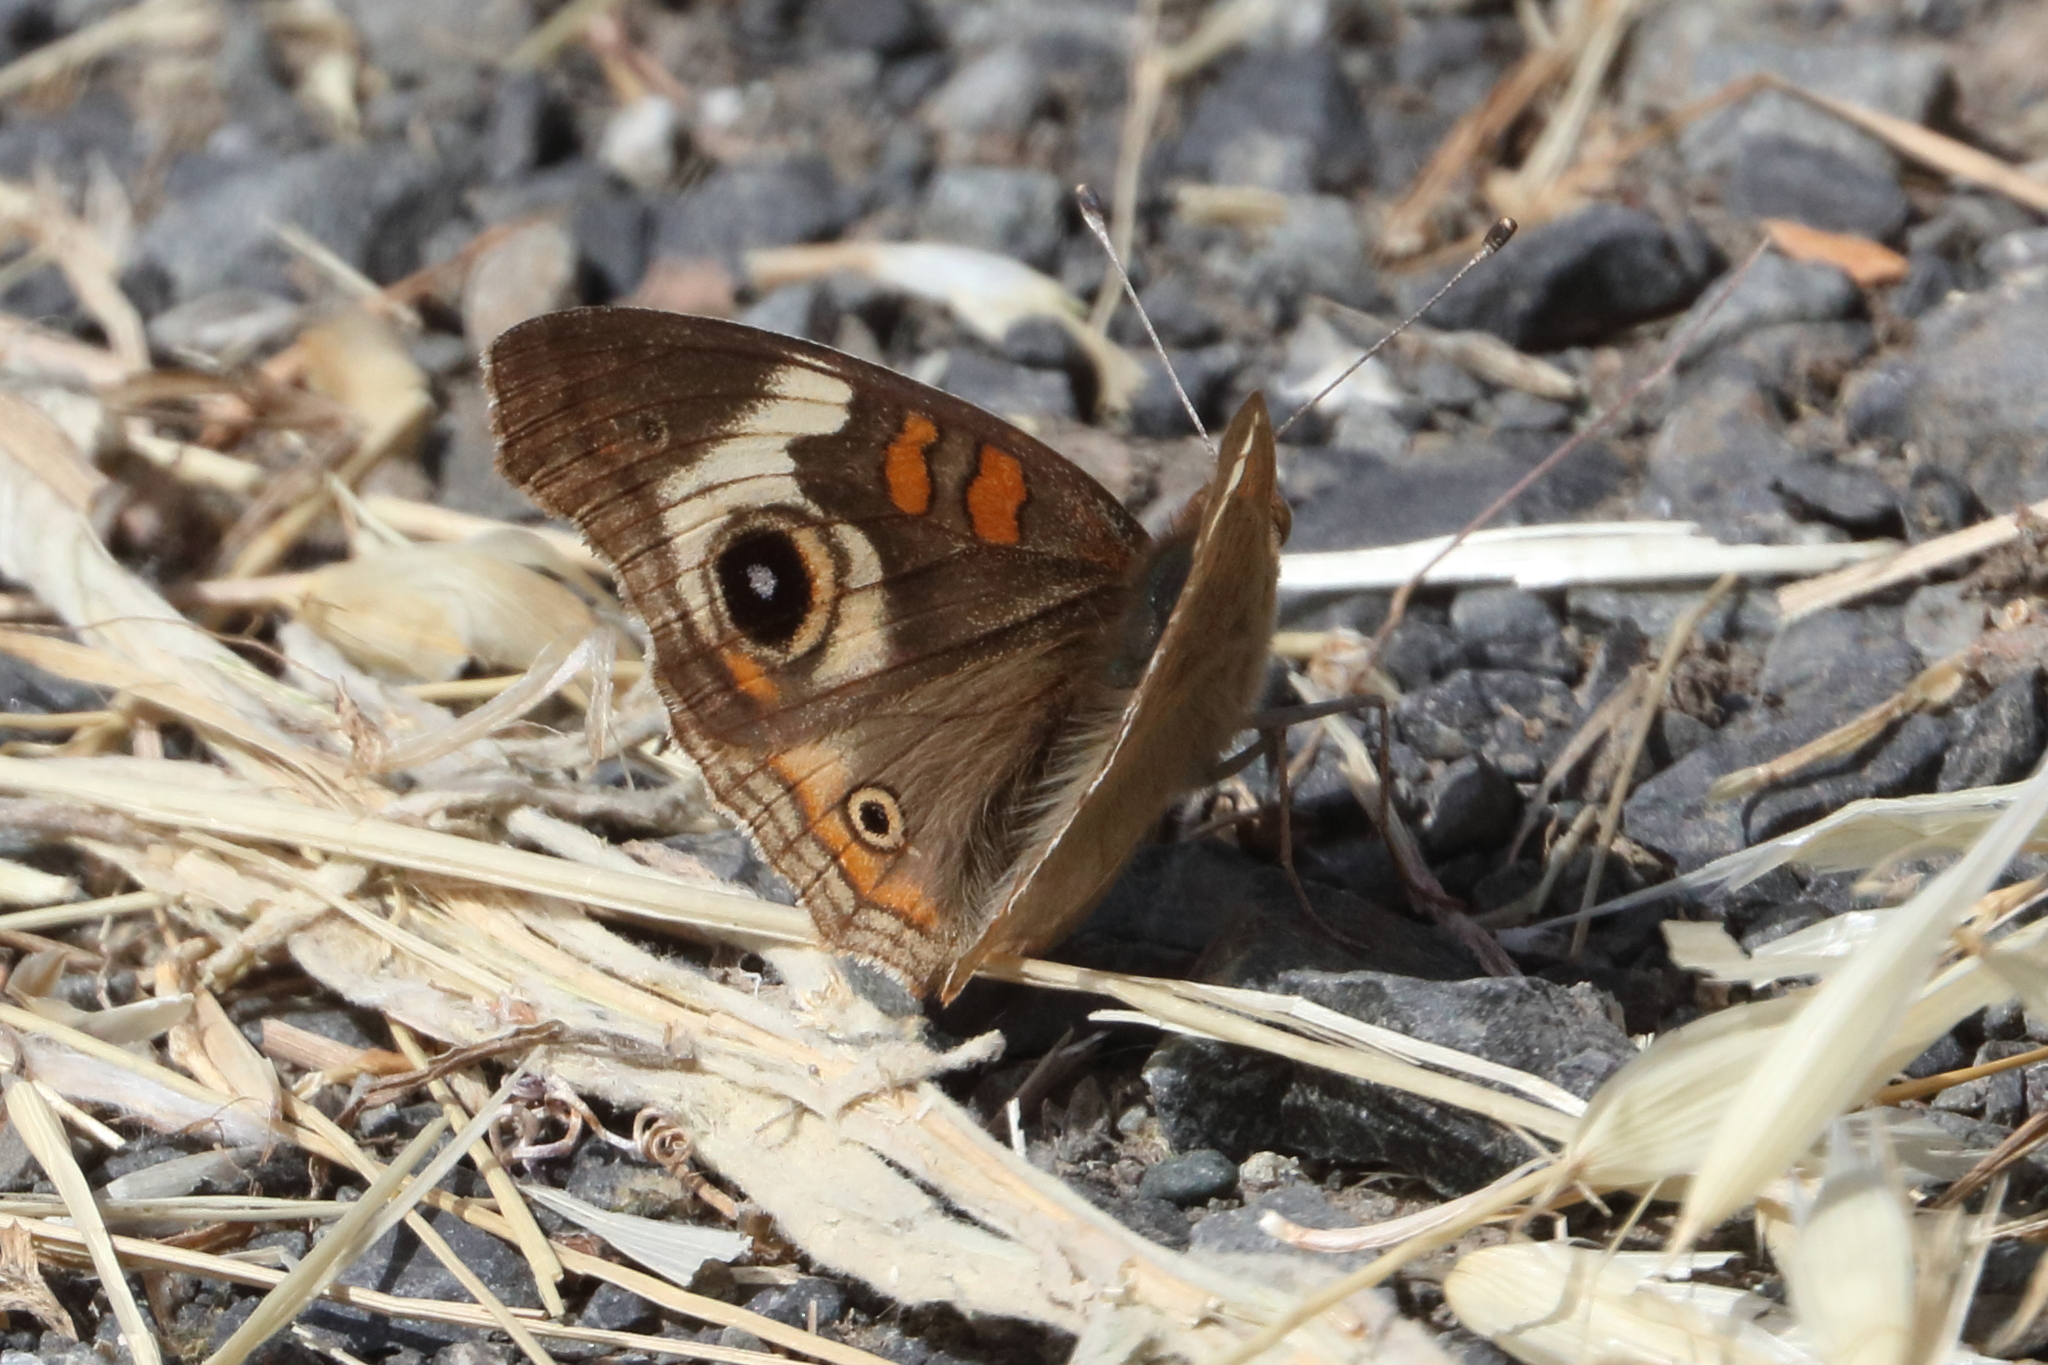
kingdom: Animalia
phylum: Arthropoda
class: Insecta
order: Lepidoptera
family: Nymphalidae
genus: Junonia
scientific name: Junonia grisea
